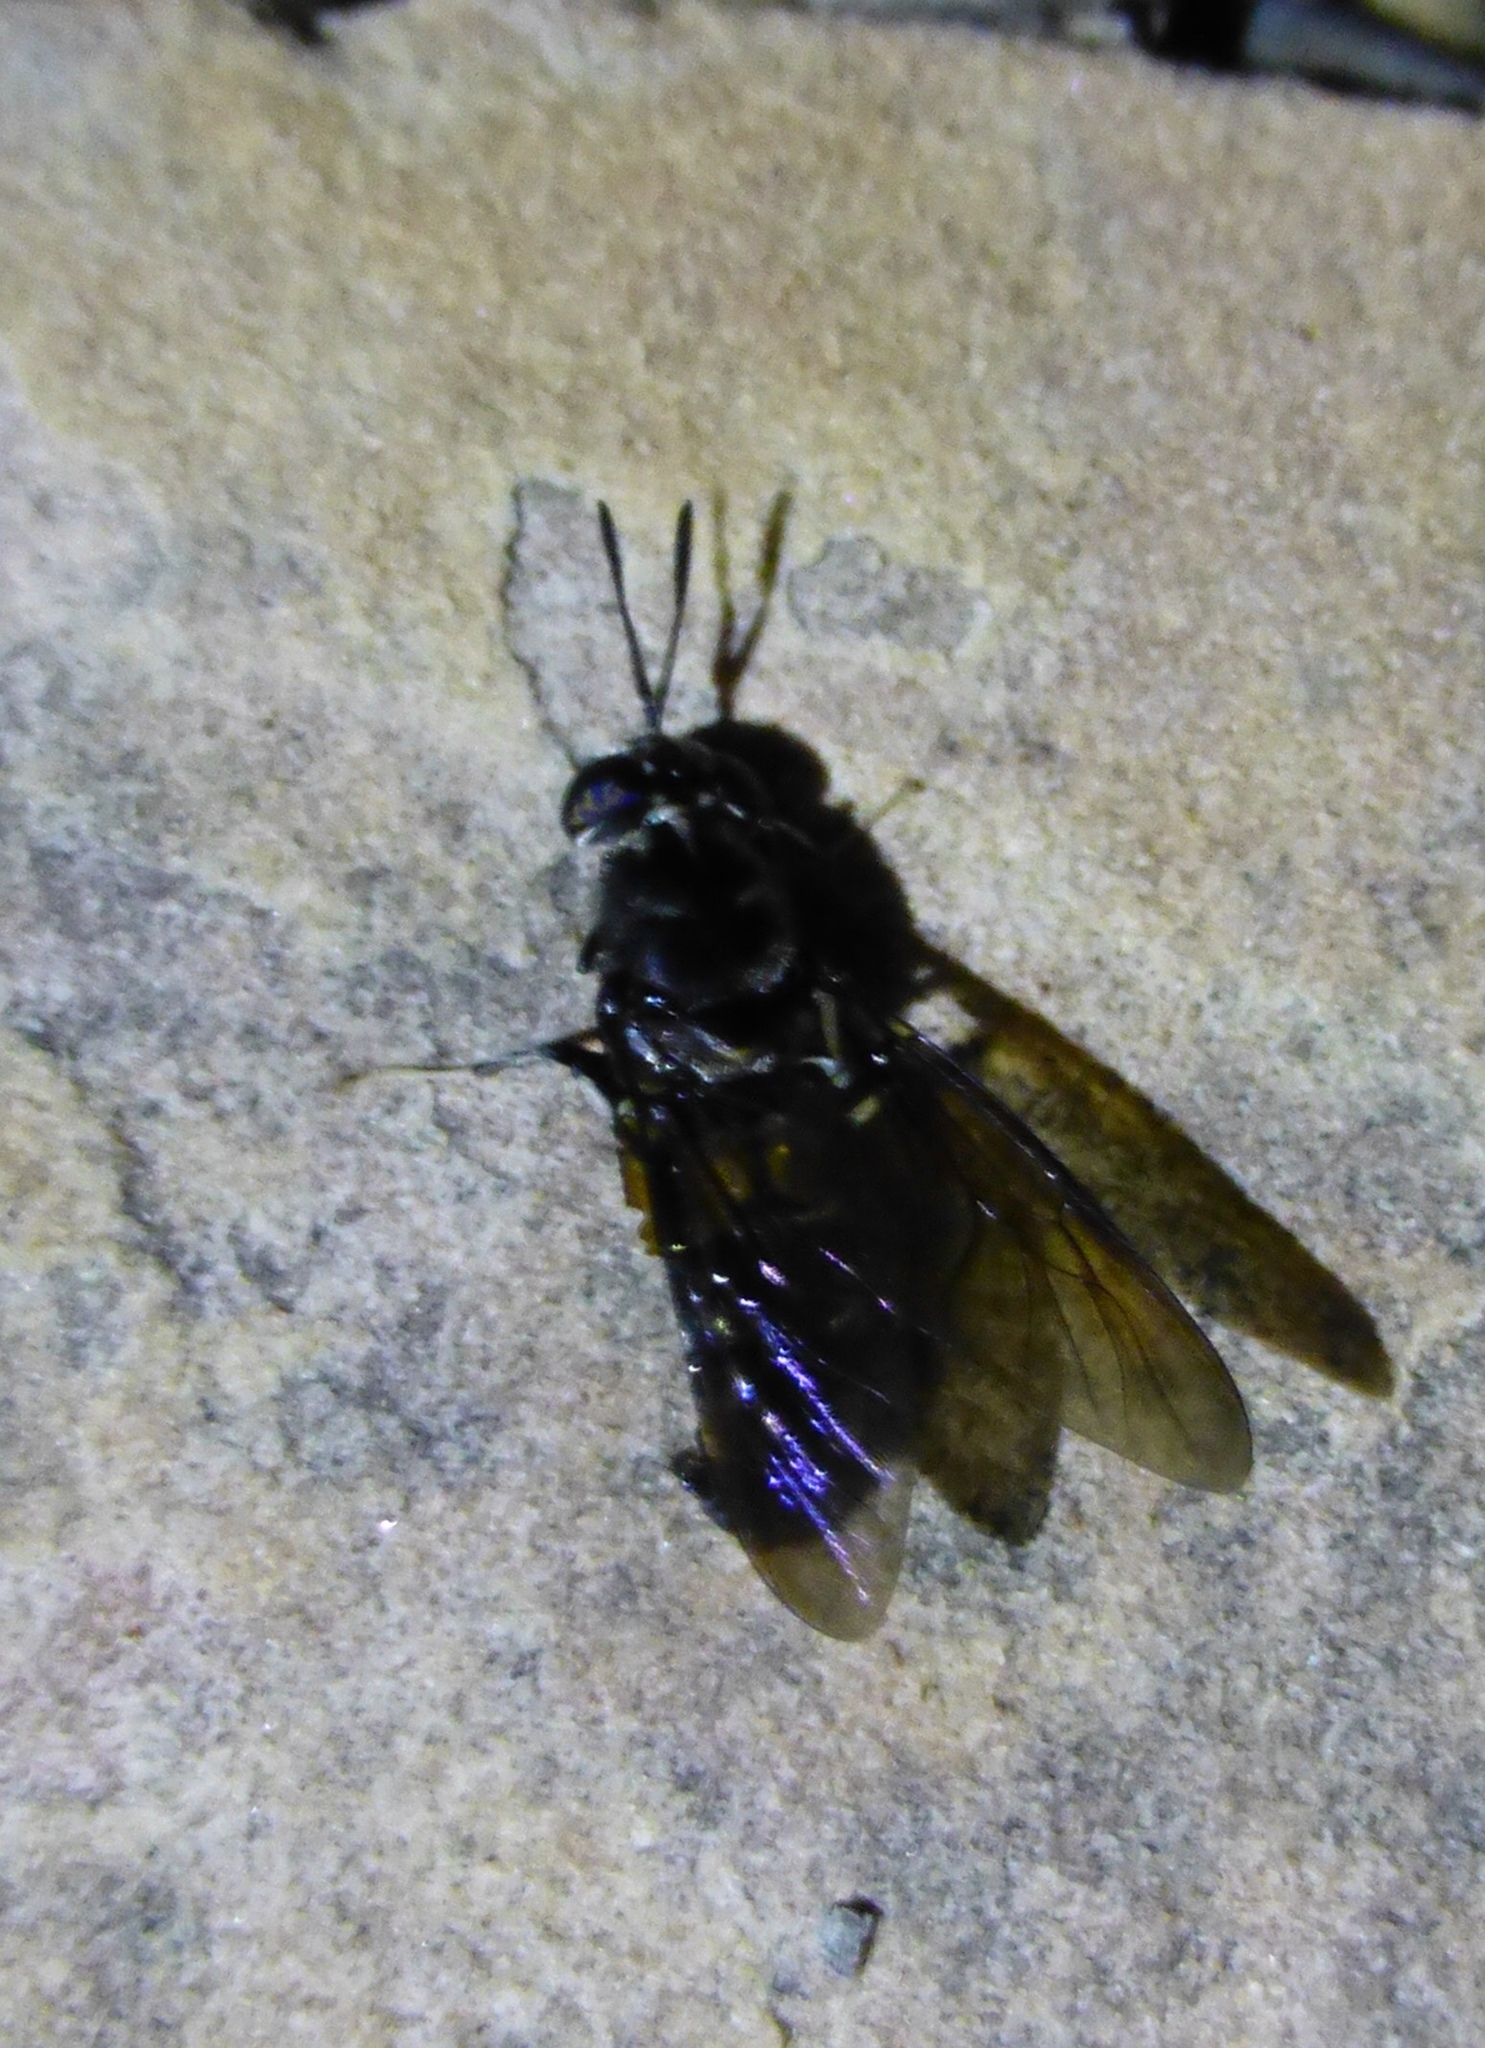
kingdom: Animalia
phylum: Arthropoda
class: Insecta
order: Diptera
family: Stratiomyidae
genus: Hermetia
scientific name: Hermetia illucens
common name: Black soldier fly
